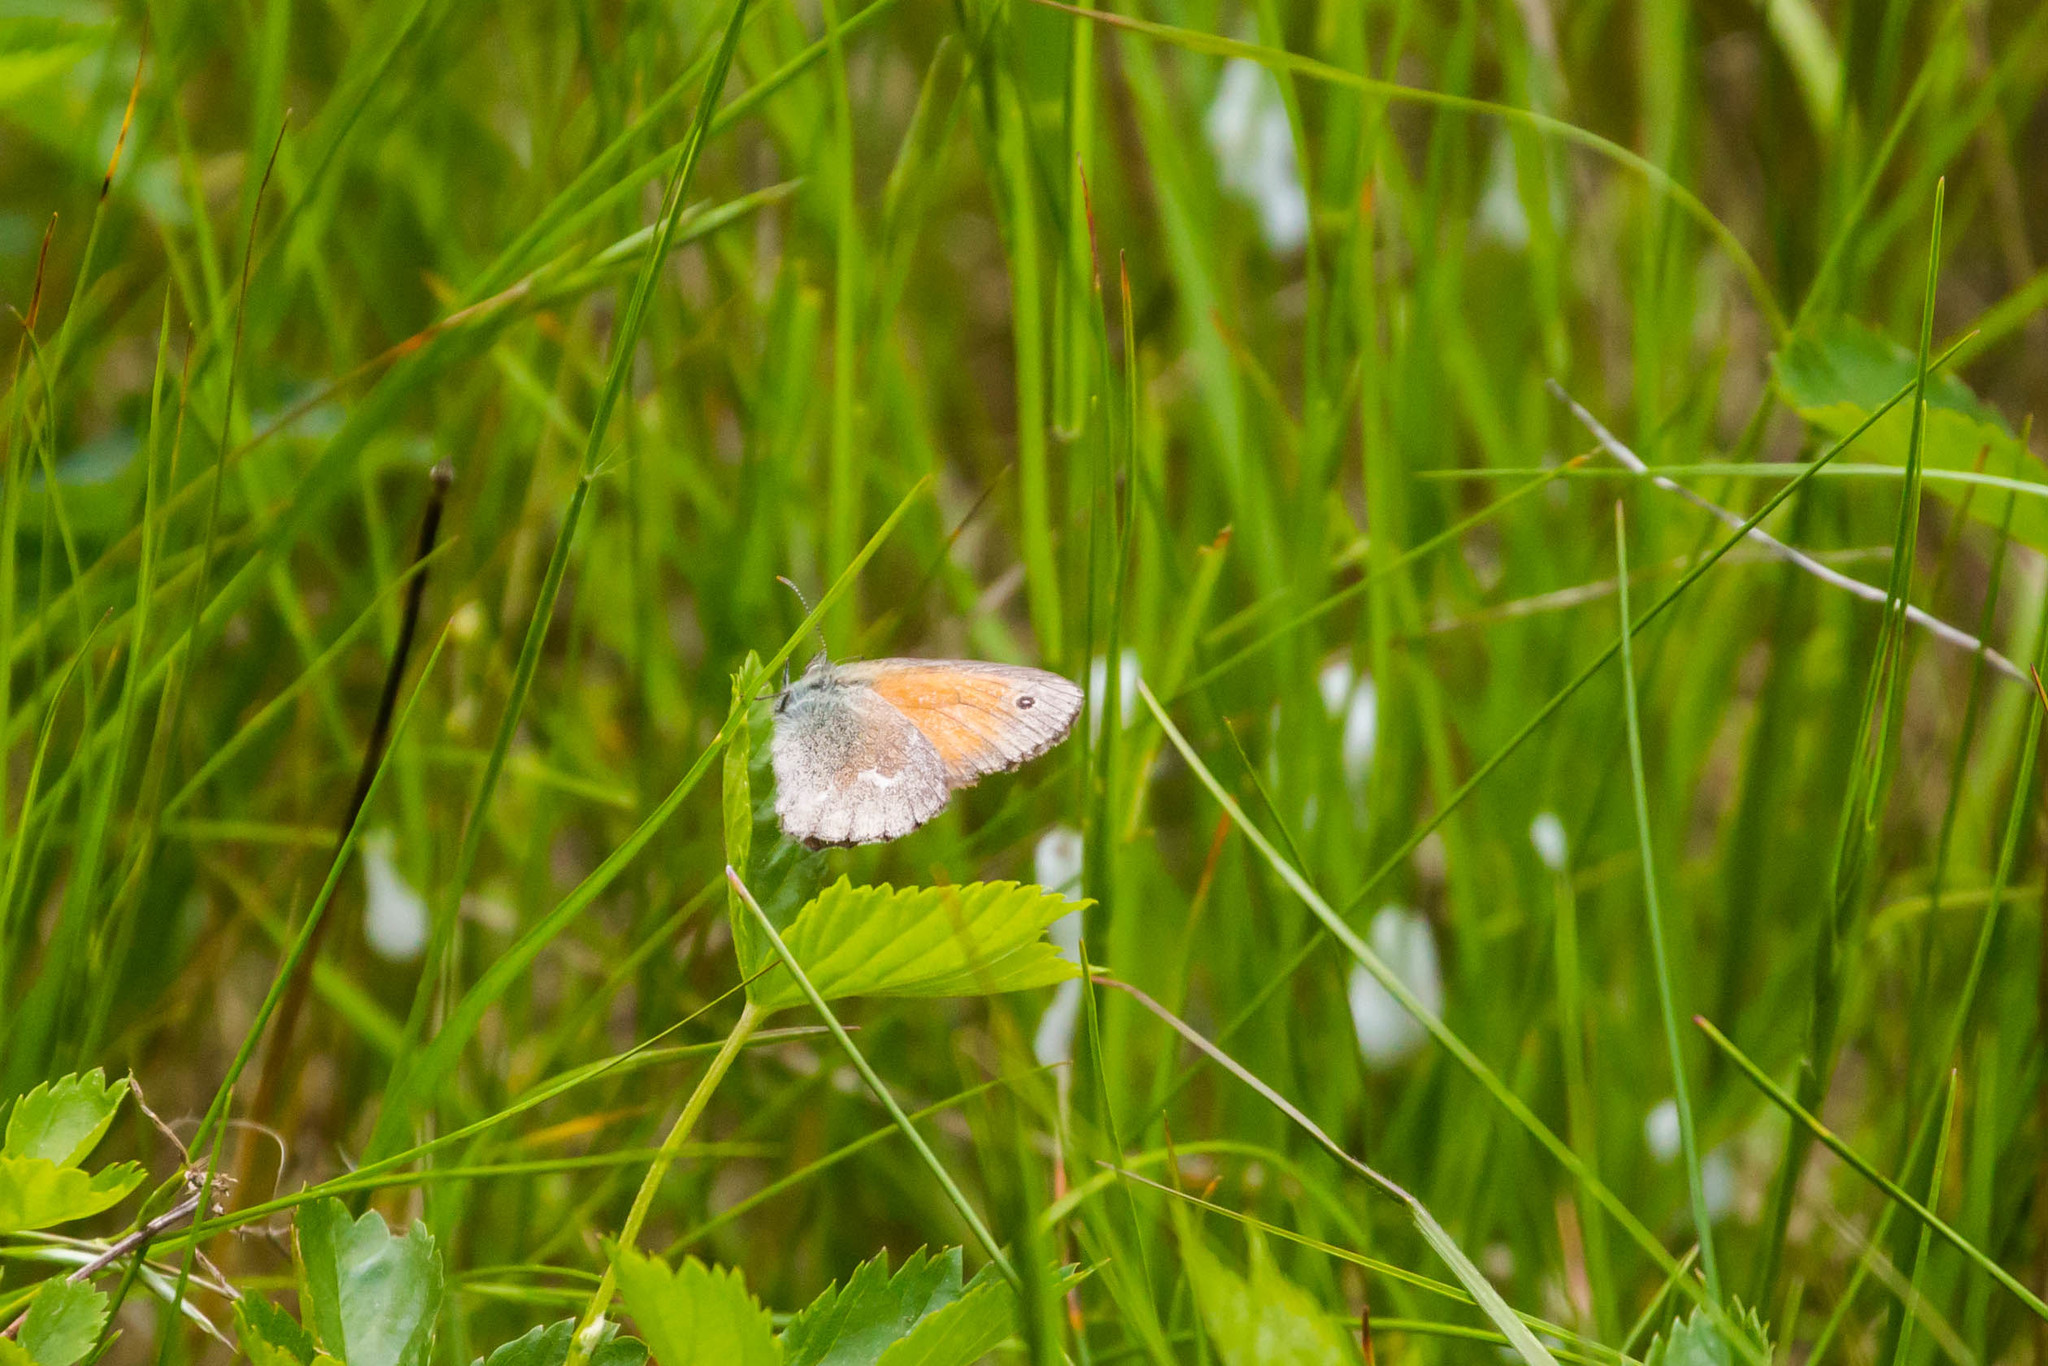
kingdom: Animalia
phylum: Arthropoda
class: Insecta
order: Lepidoptera
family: Nymphalidae
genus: Coenonympha
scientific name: Coenonympha california
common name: Common ringlet
